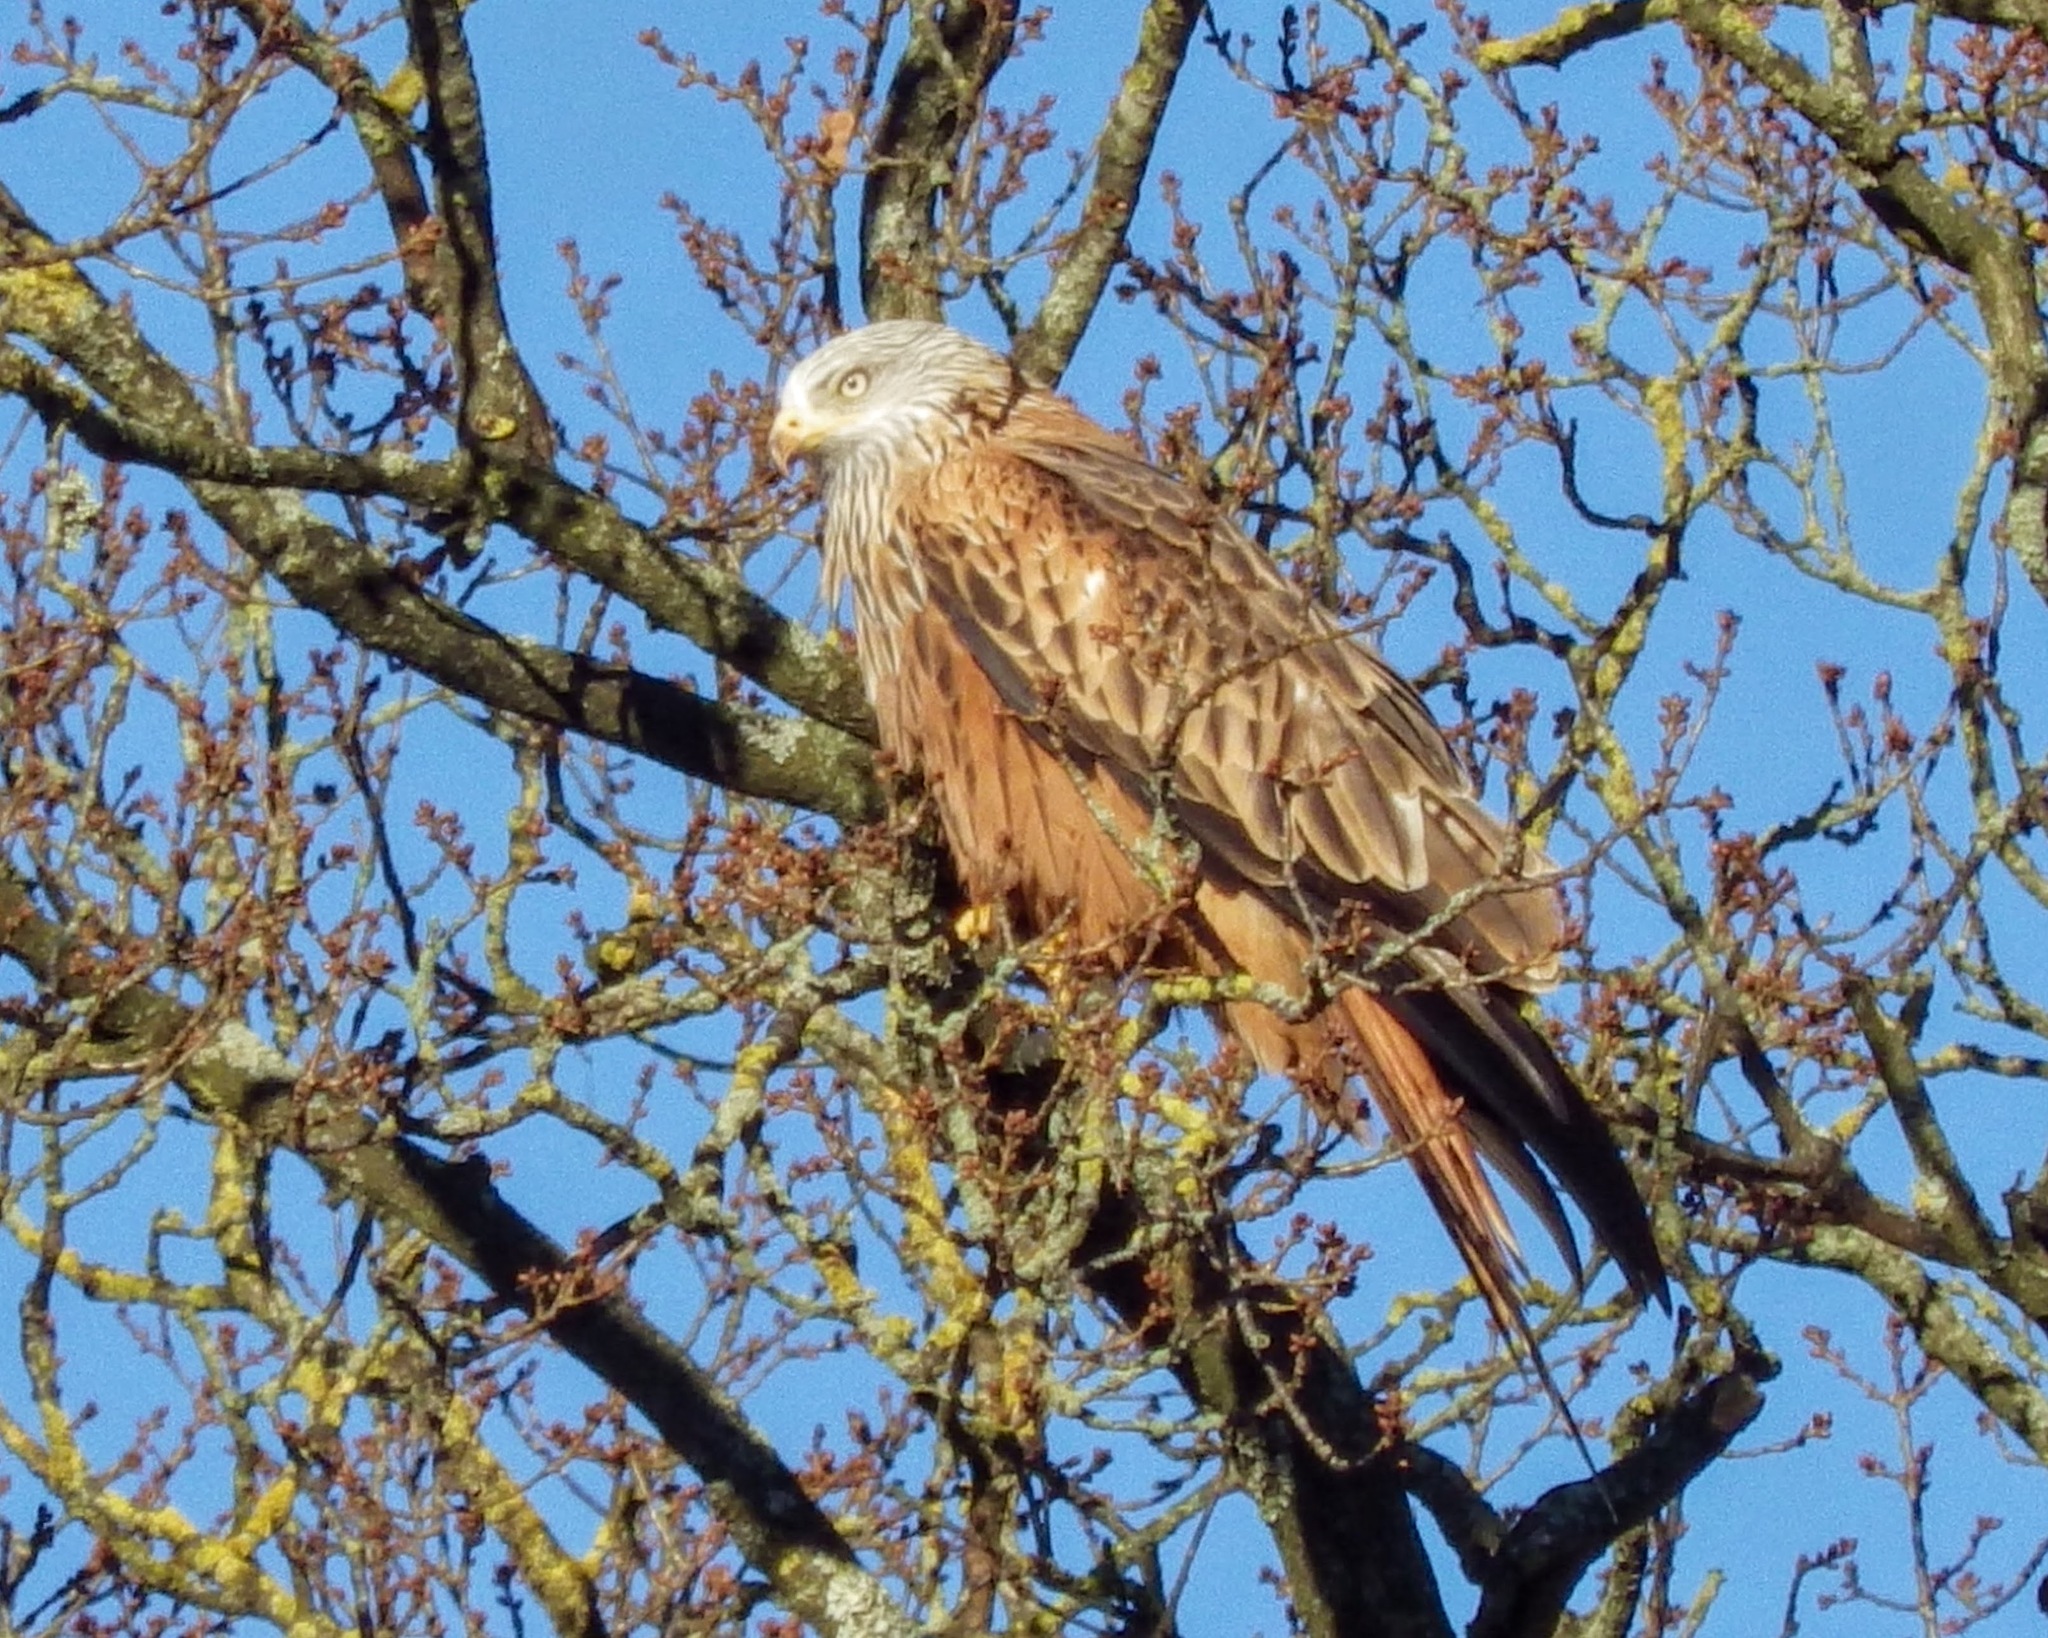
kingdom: Animalia
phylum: Chordata
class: Aves
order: Accipitriformes
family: Accipitridae
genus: Milvus
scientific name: Milvus milvus
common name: Red kite
